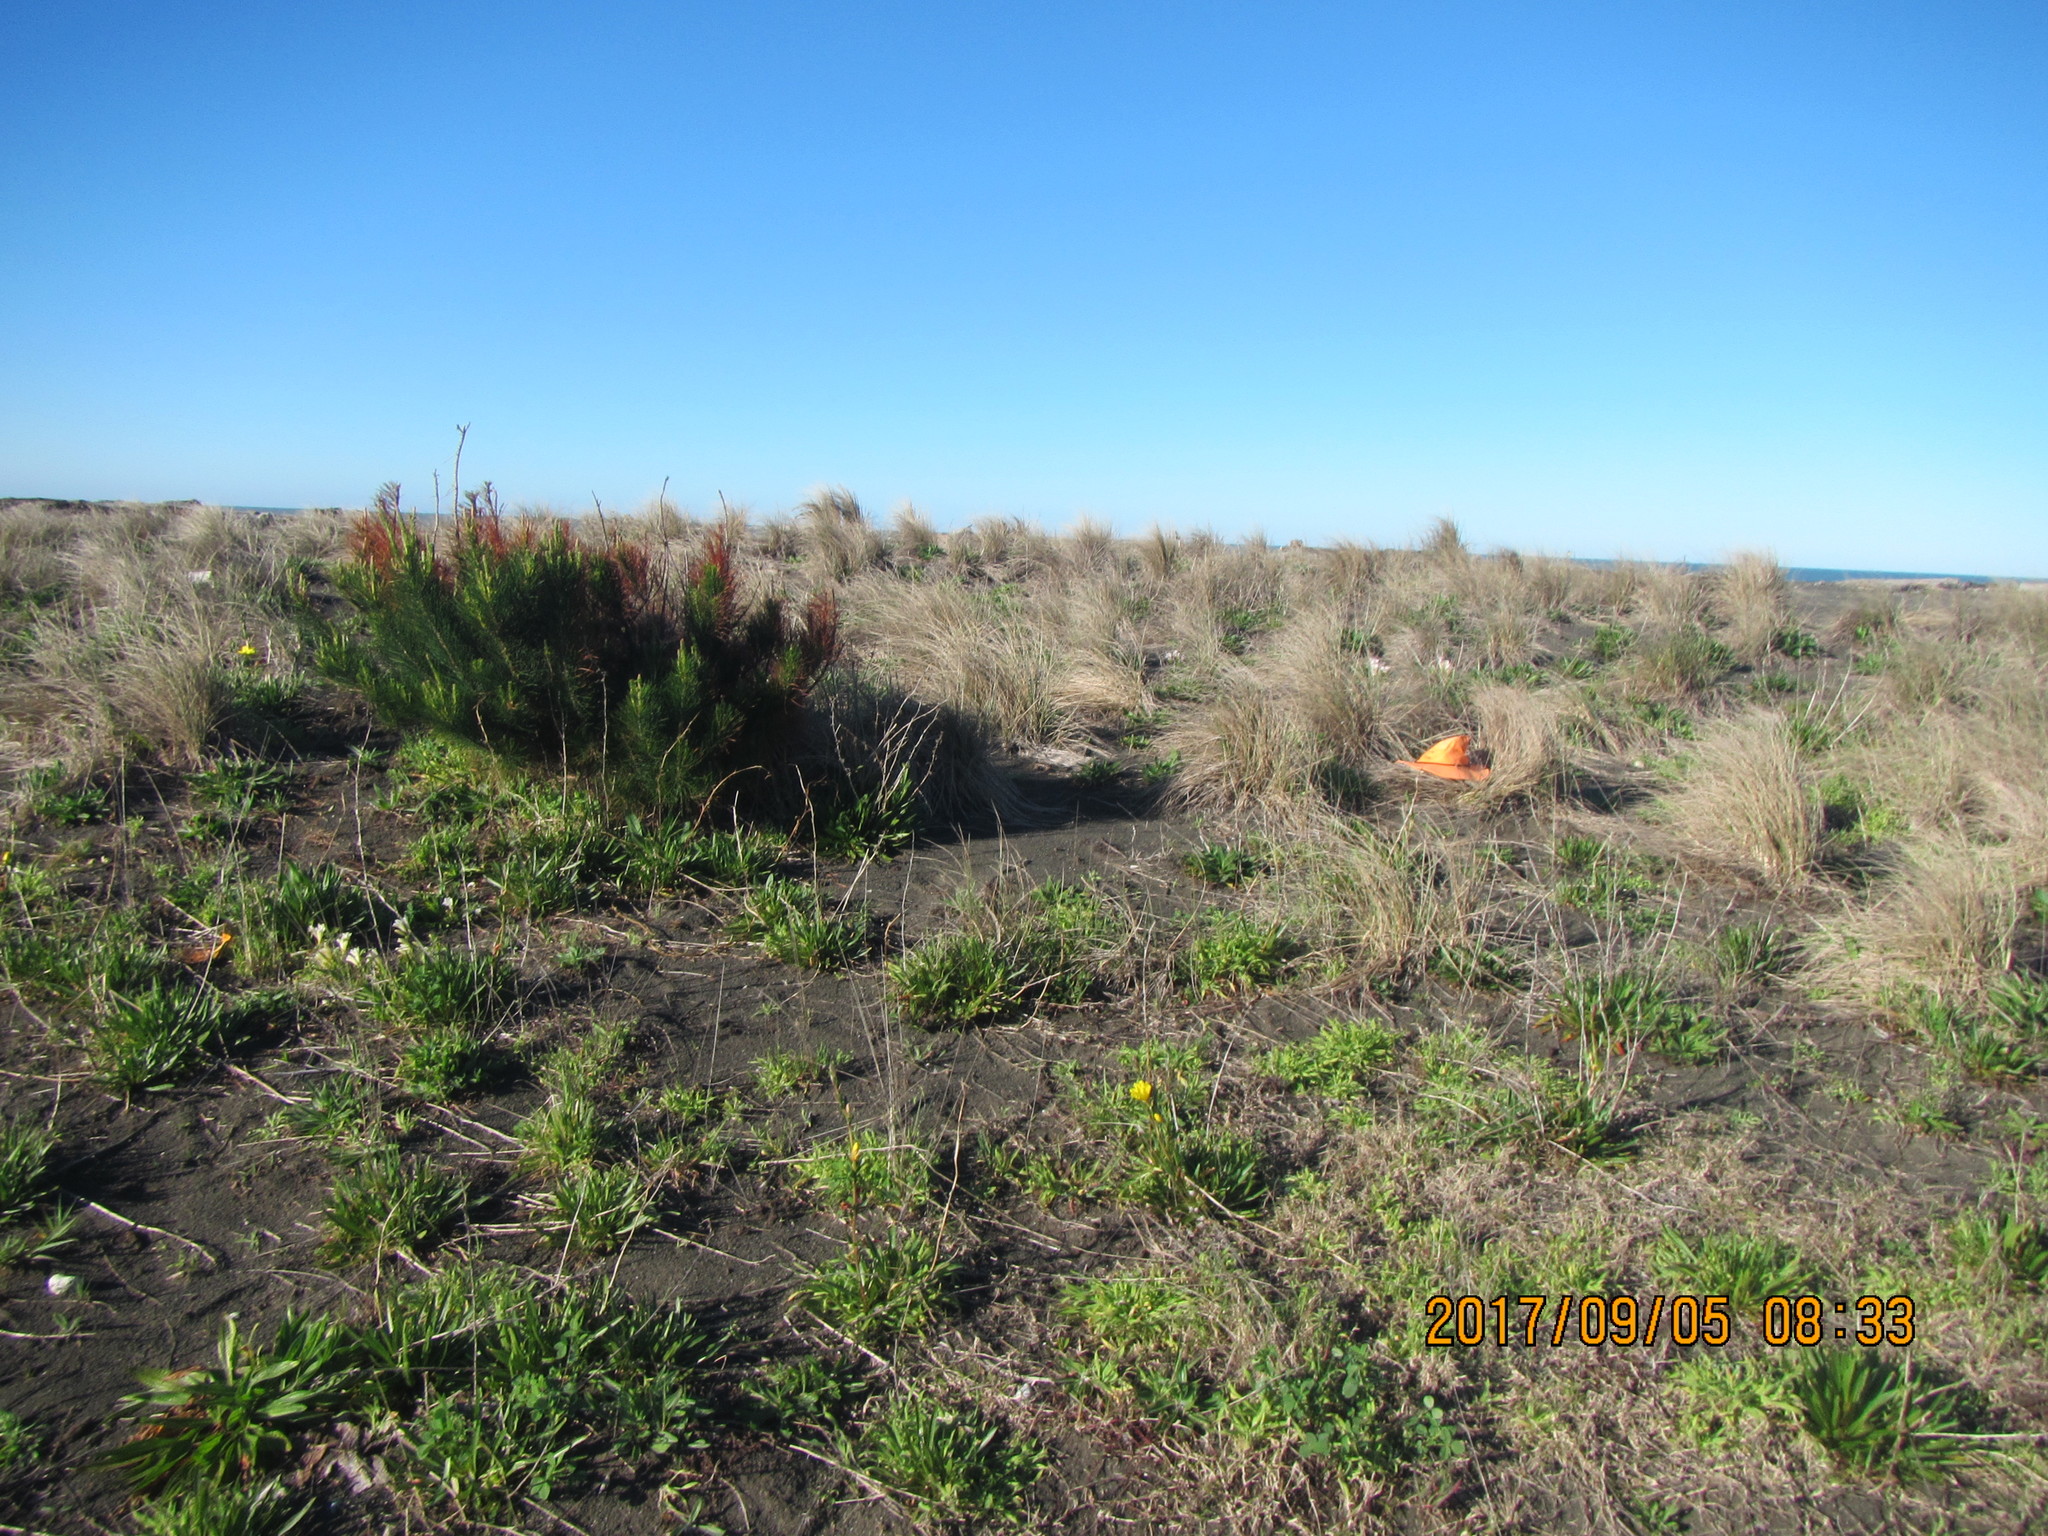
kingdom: Plantae
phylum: Tracheophyta
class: Pinopsida
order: Pinales
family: Pinaceae
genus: Pinus
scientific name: Pinus radiata
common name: Monterey pine
